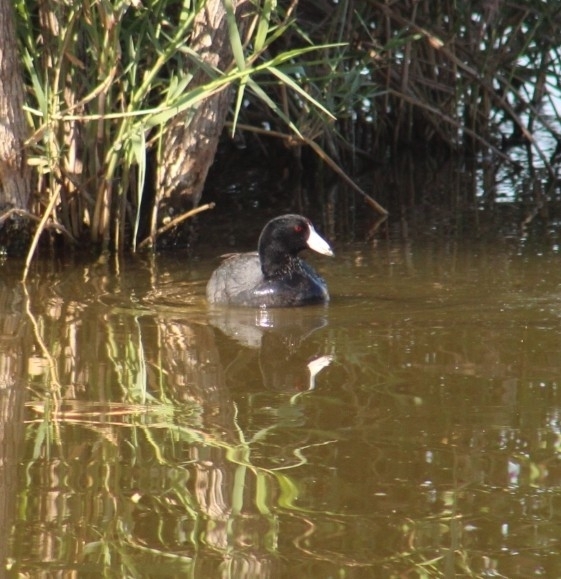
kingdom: Animalia
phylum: Chordata
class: Aves
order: Gruiformes
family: Rallidae
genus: Fulica
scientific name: Fulica americana
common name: American coot
